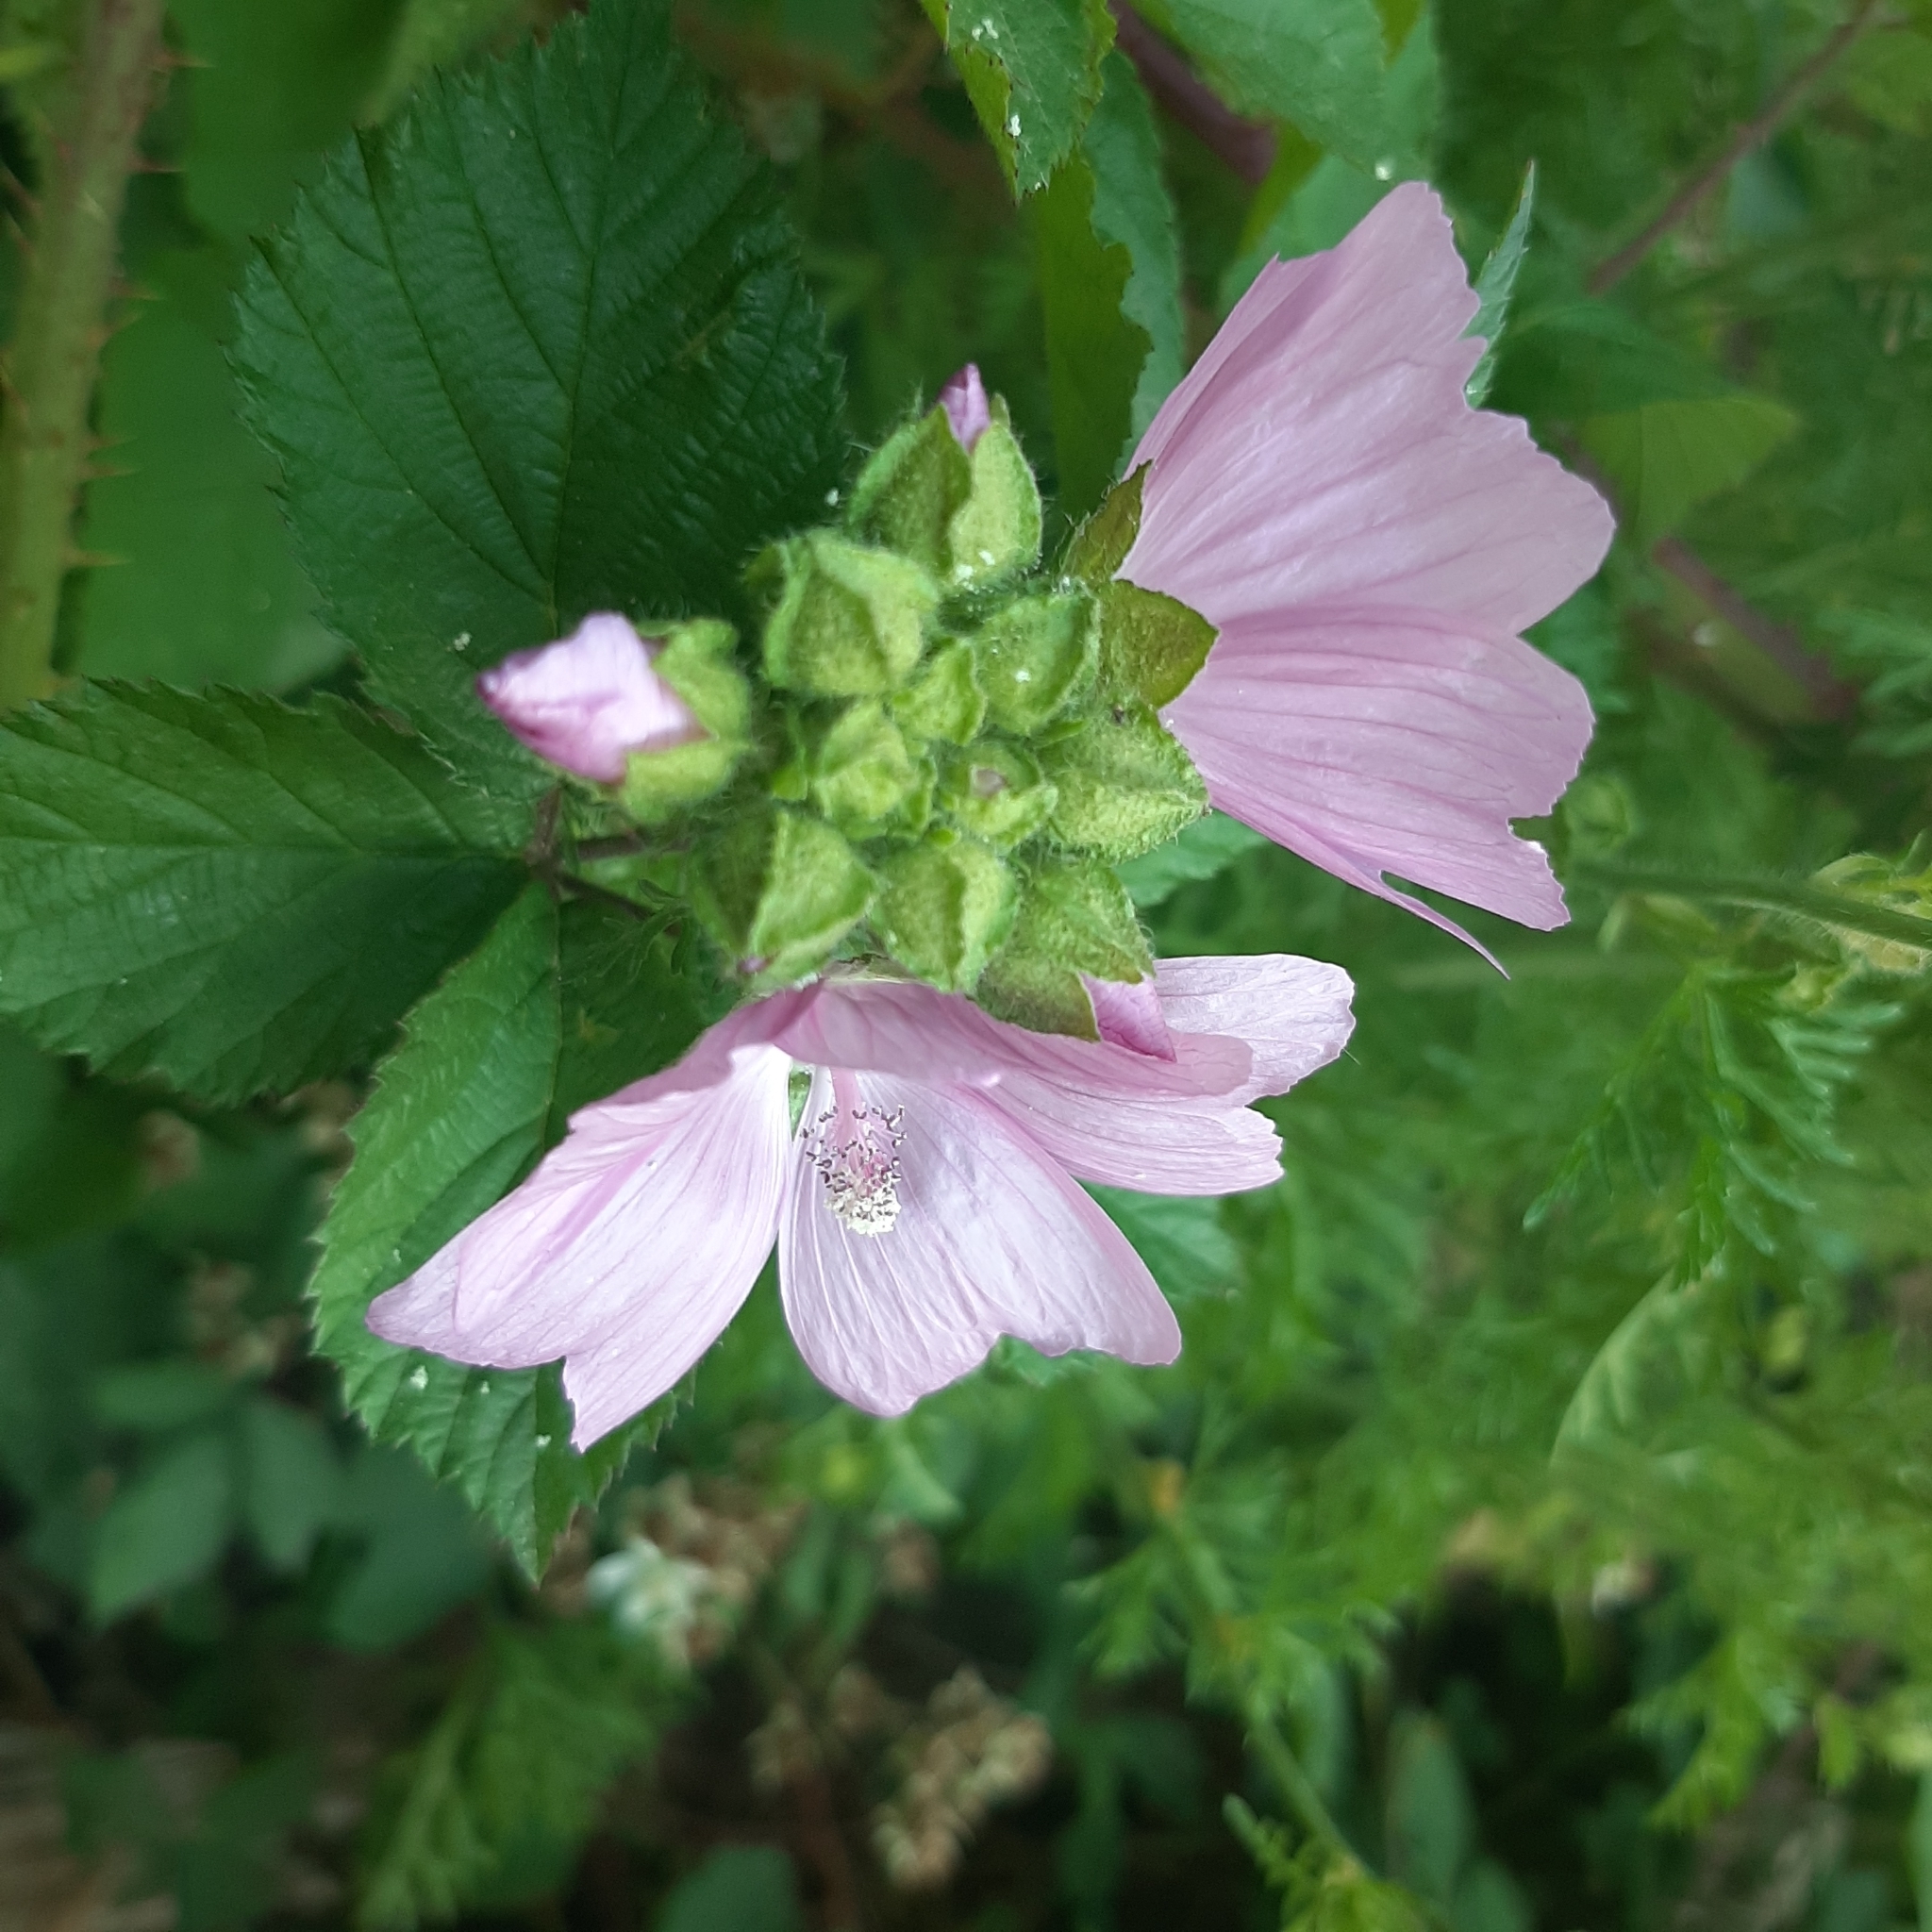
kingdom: Plantae
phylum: Tracheophyta
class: Magnoliopsida
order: Malvales
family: Malvaceae
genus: Malva
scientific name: Malva moschata
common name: Musk mallow
